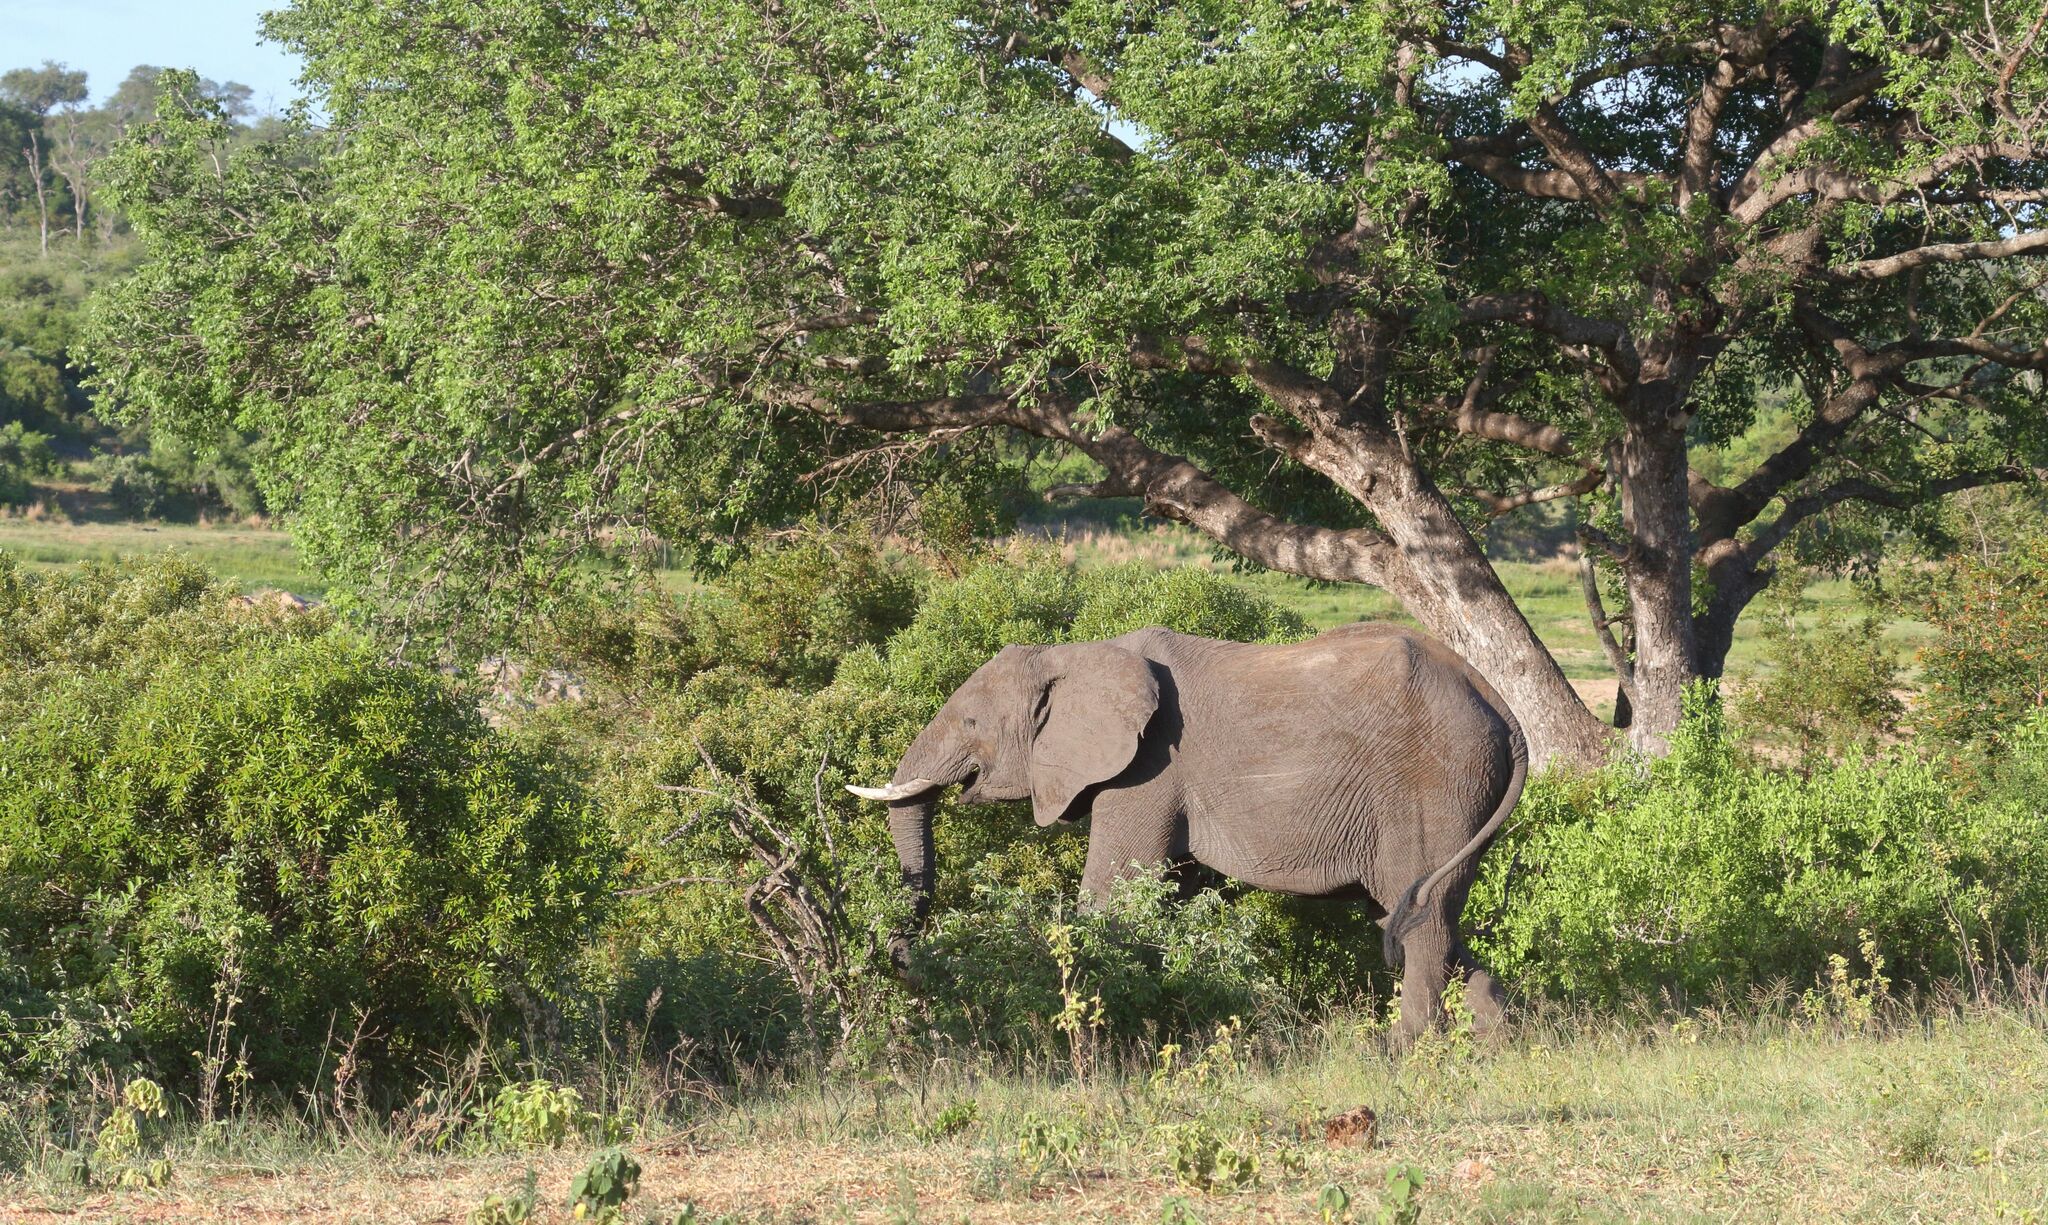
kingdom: Animalia
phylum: Chordata
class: Mammalia
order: Proboscidea
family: Elephantidae
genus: Loxodonta
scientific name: Loxodonta africana
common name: African elephant
